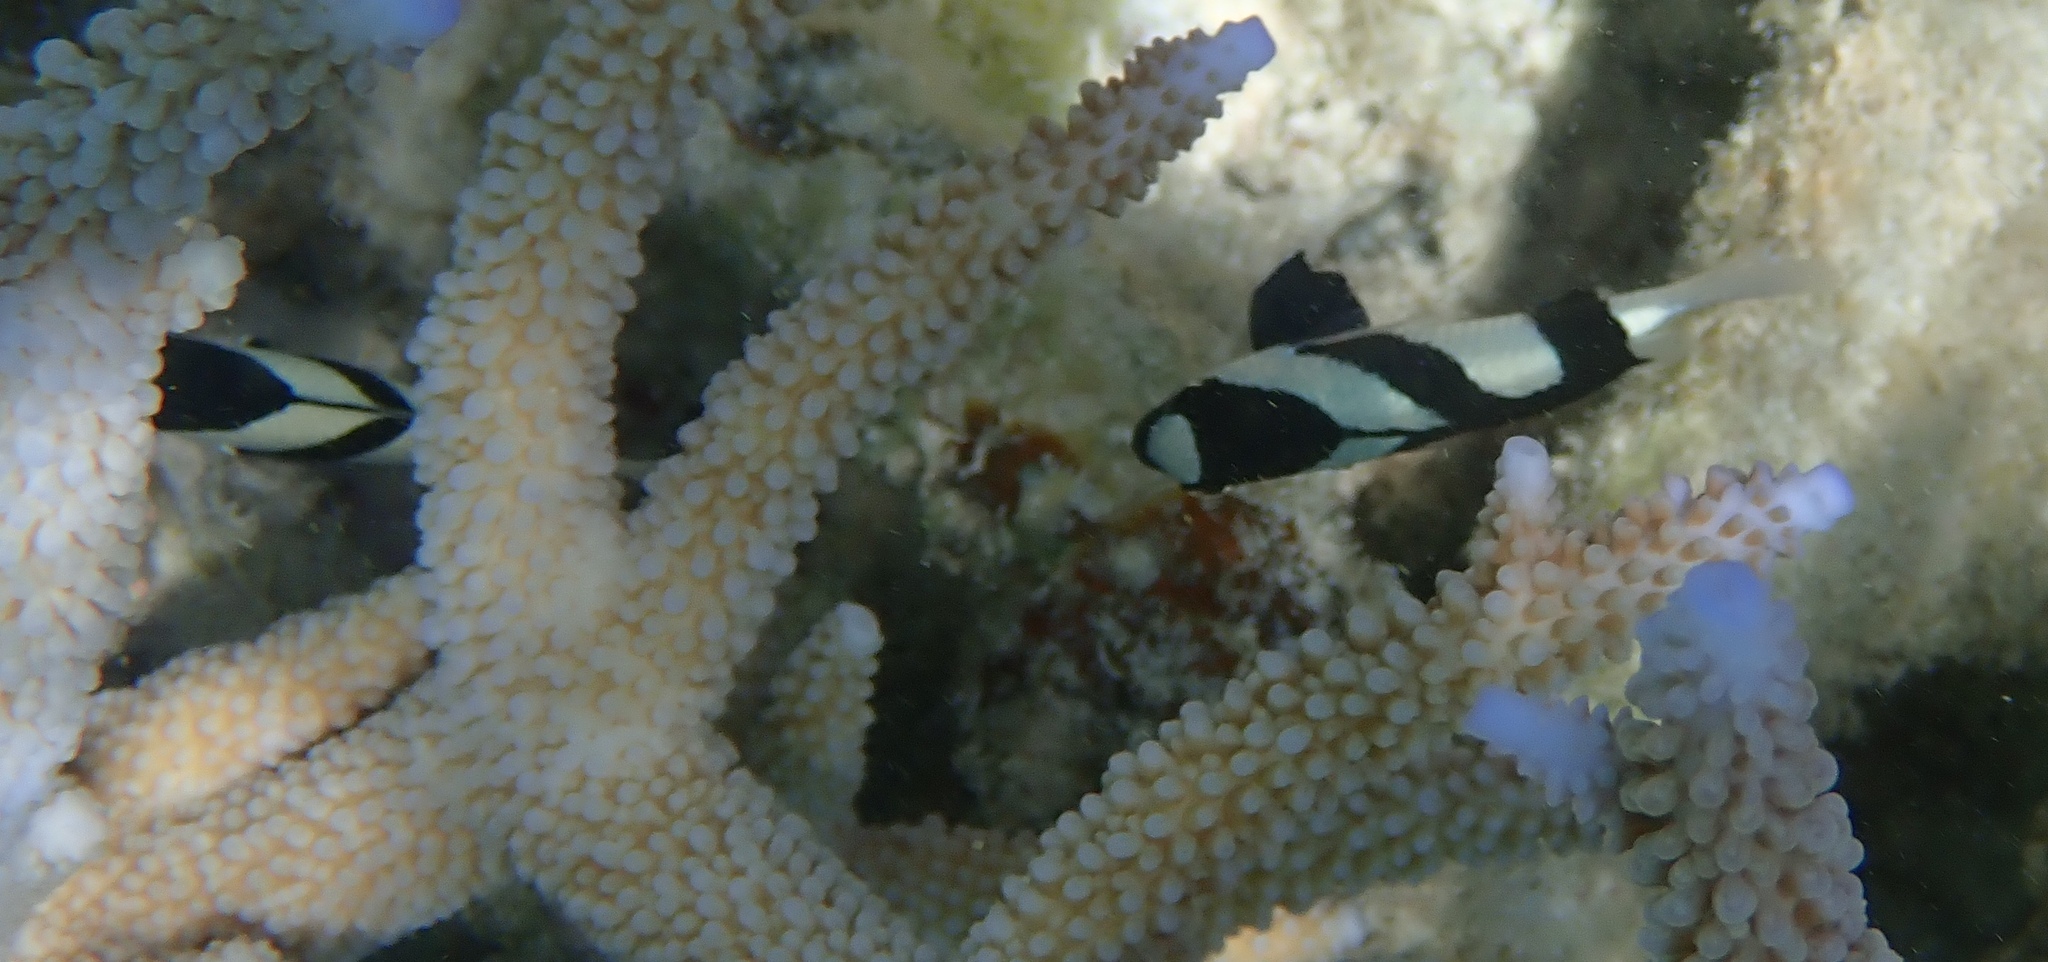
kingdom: Animalia
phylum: Chordata
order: Perciformes
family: Pomacentridae
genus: Dascyllus
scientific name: Dascyllus aruanus
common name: Humbug dascyllus
